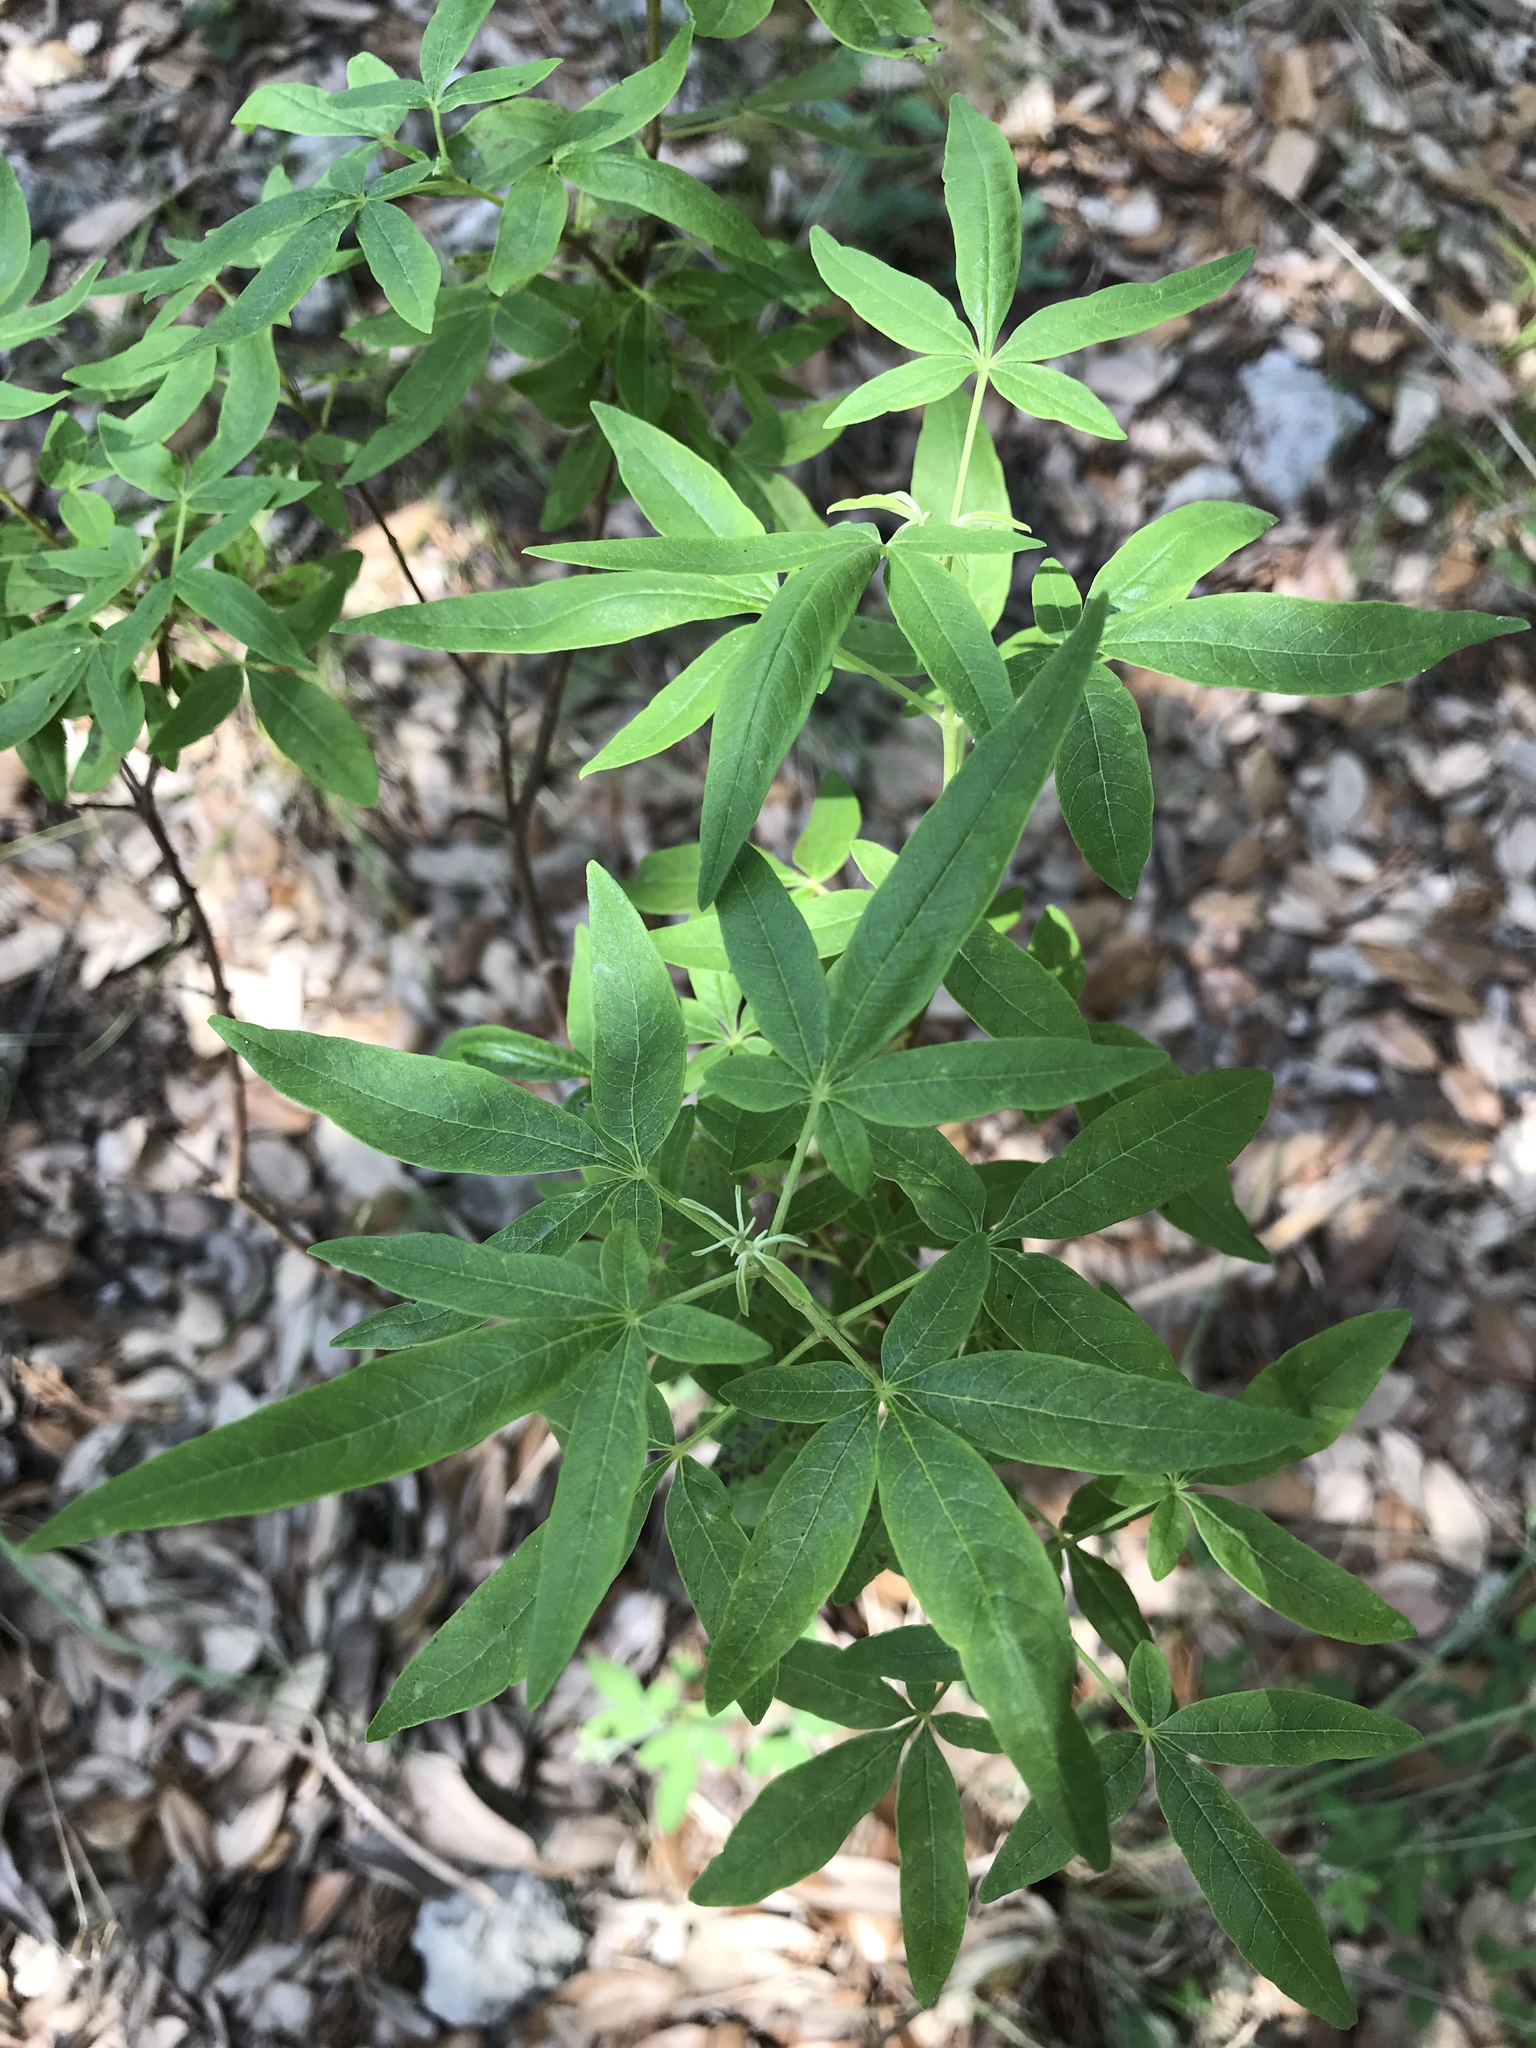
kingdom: Plantae
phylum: Tracheophyta
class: Magnoliopsida
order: Lamiales
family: Lamiaceae
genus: Vitex
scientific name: Vitex agnus-castus
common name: Chasteberry
